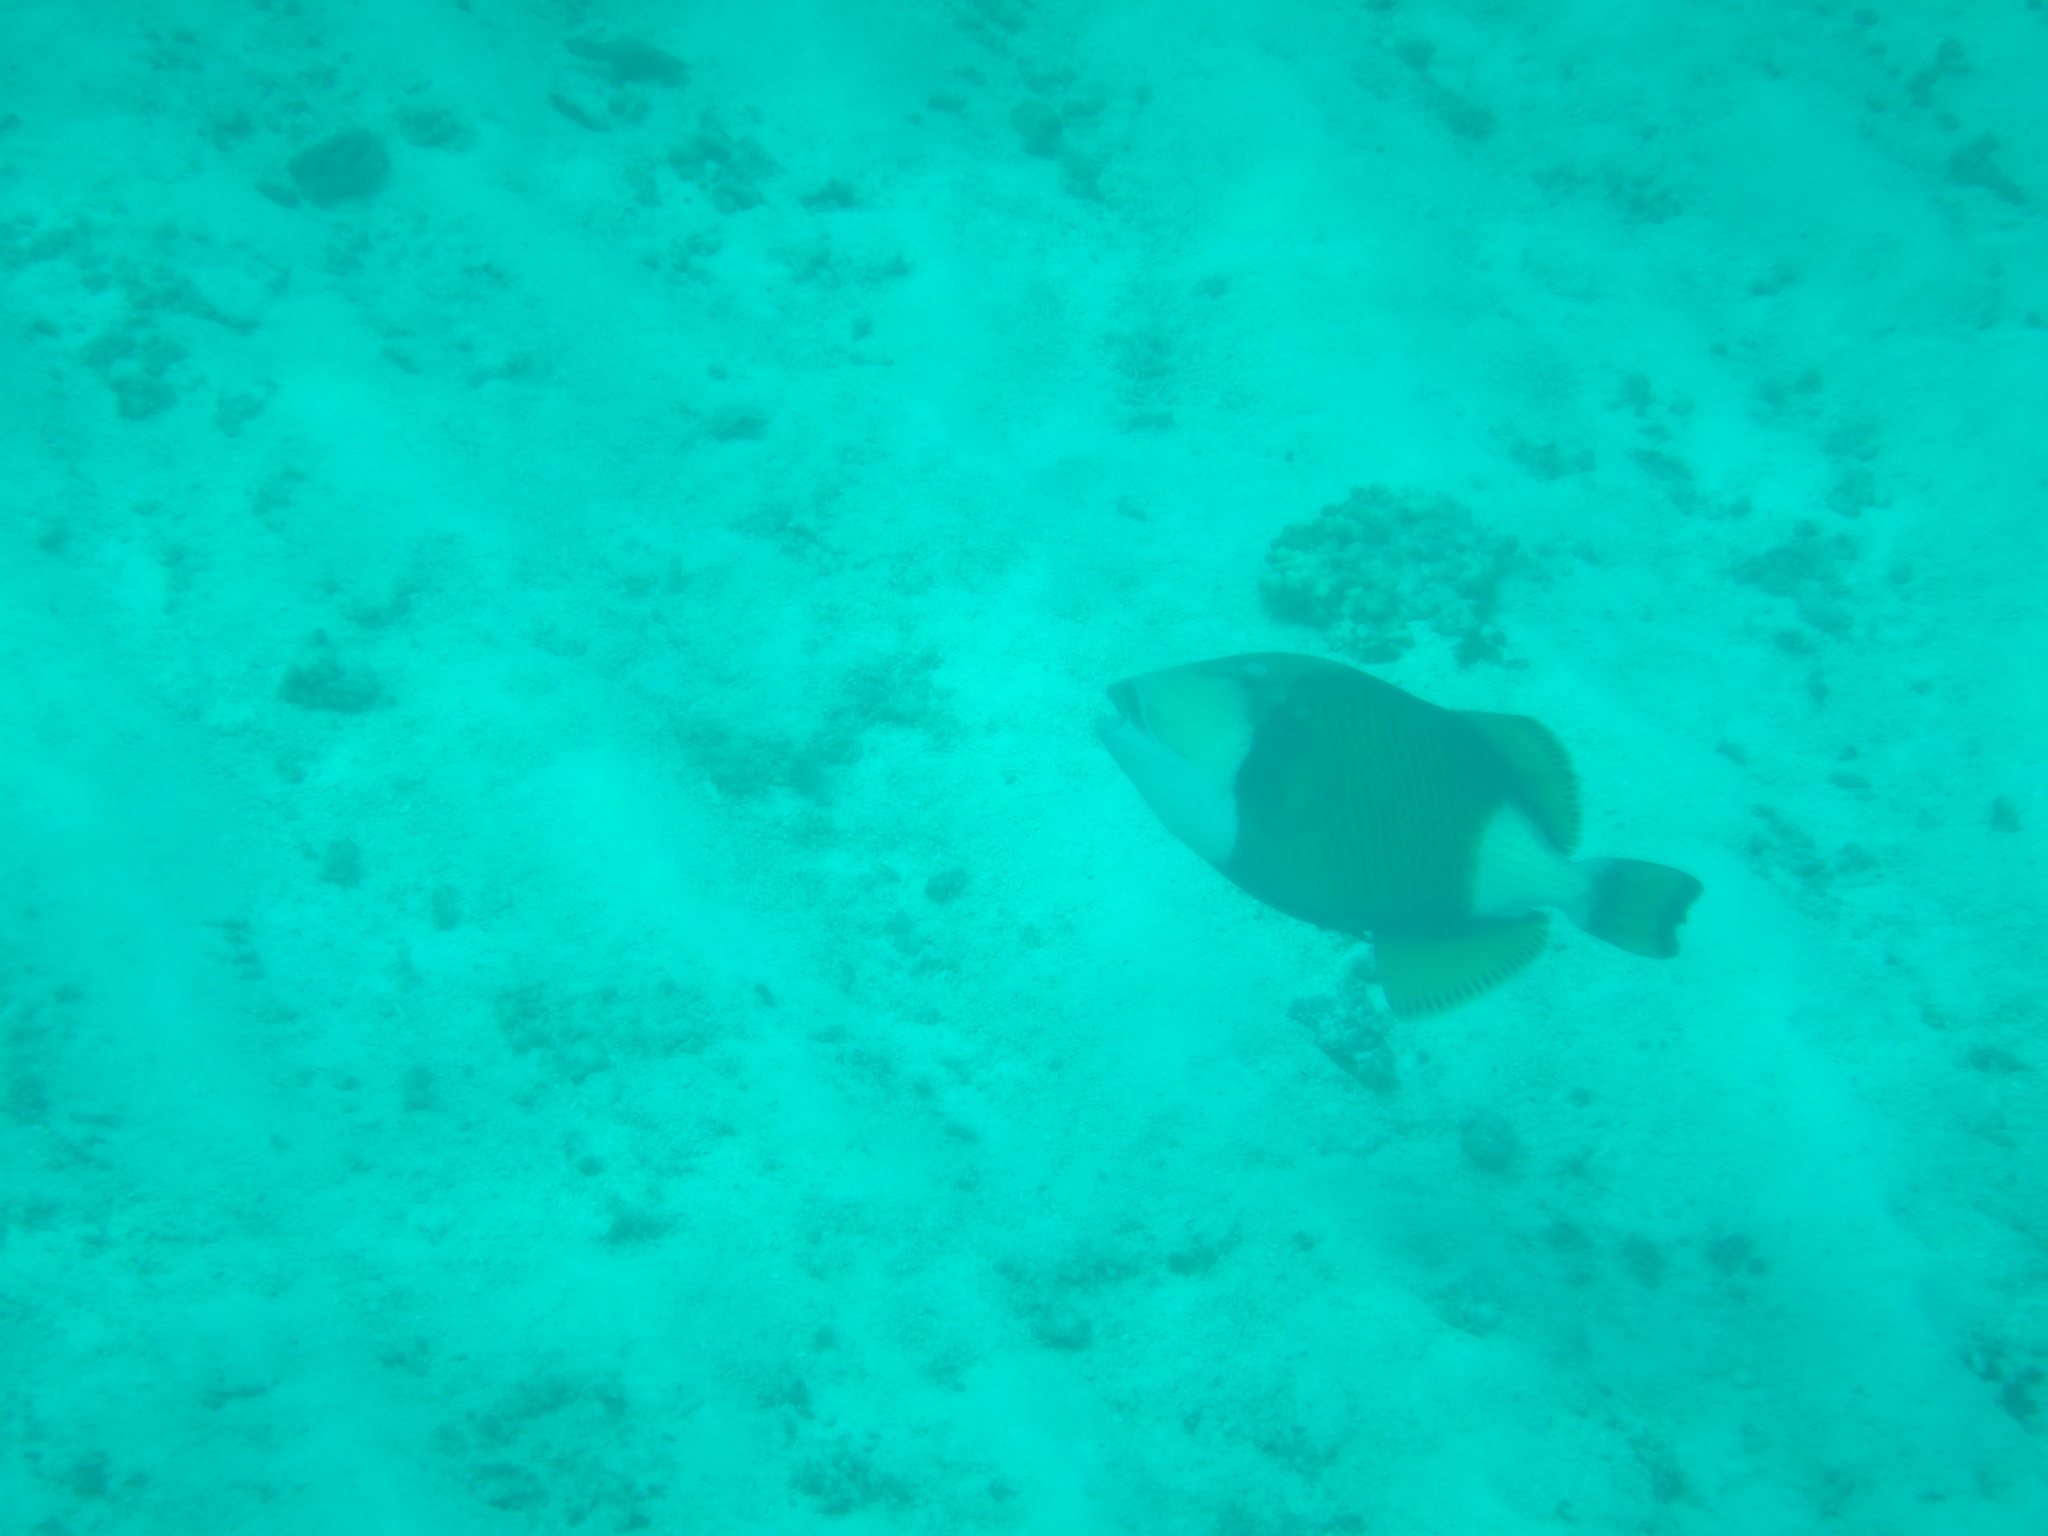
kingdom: Animalia
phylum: Chordata
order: Tetraodontiformes
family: Balistidae
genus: Balistoides
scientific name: Balistoides viridescens
